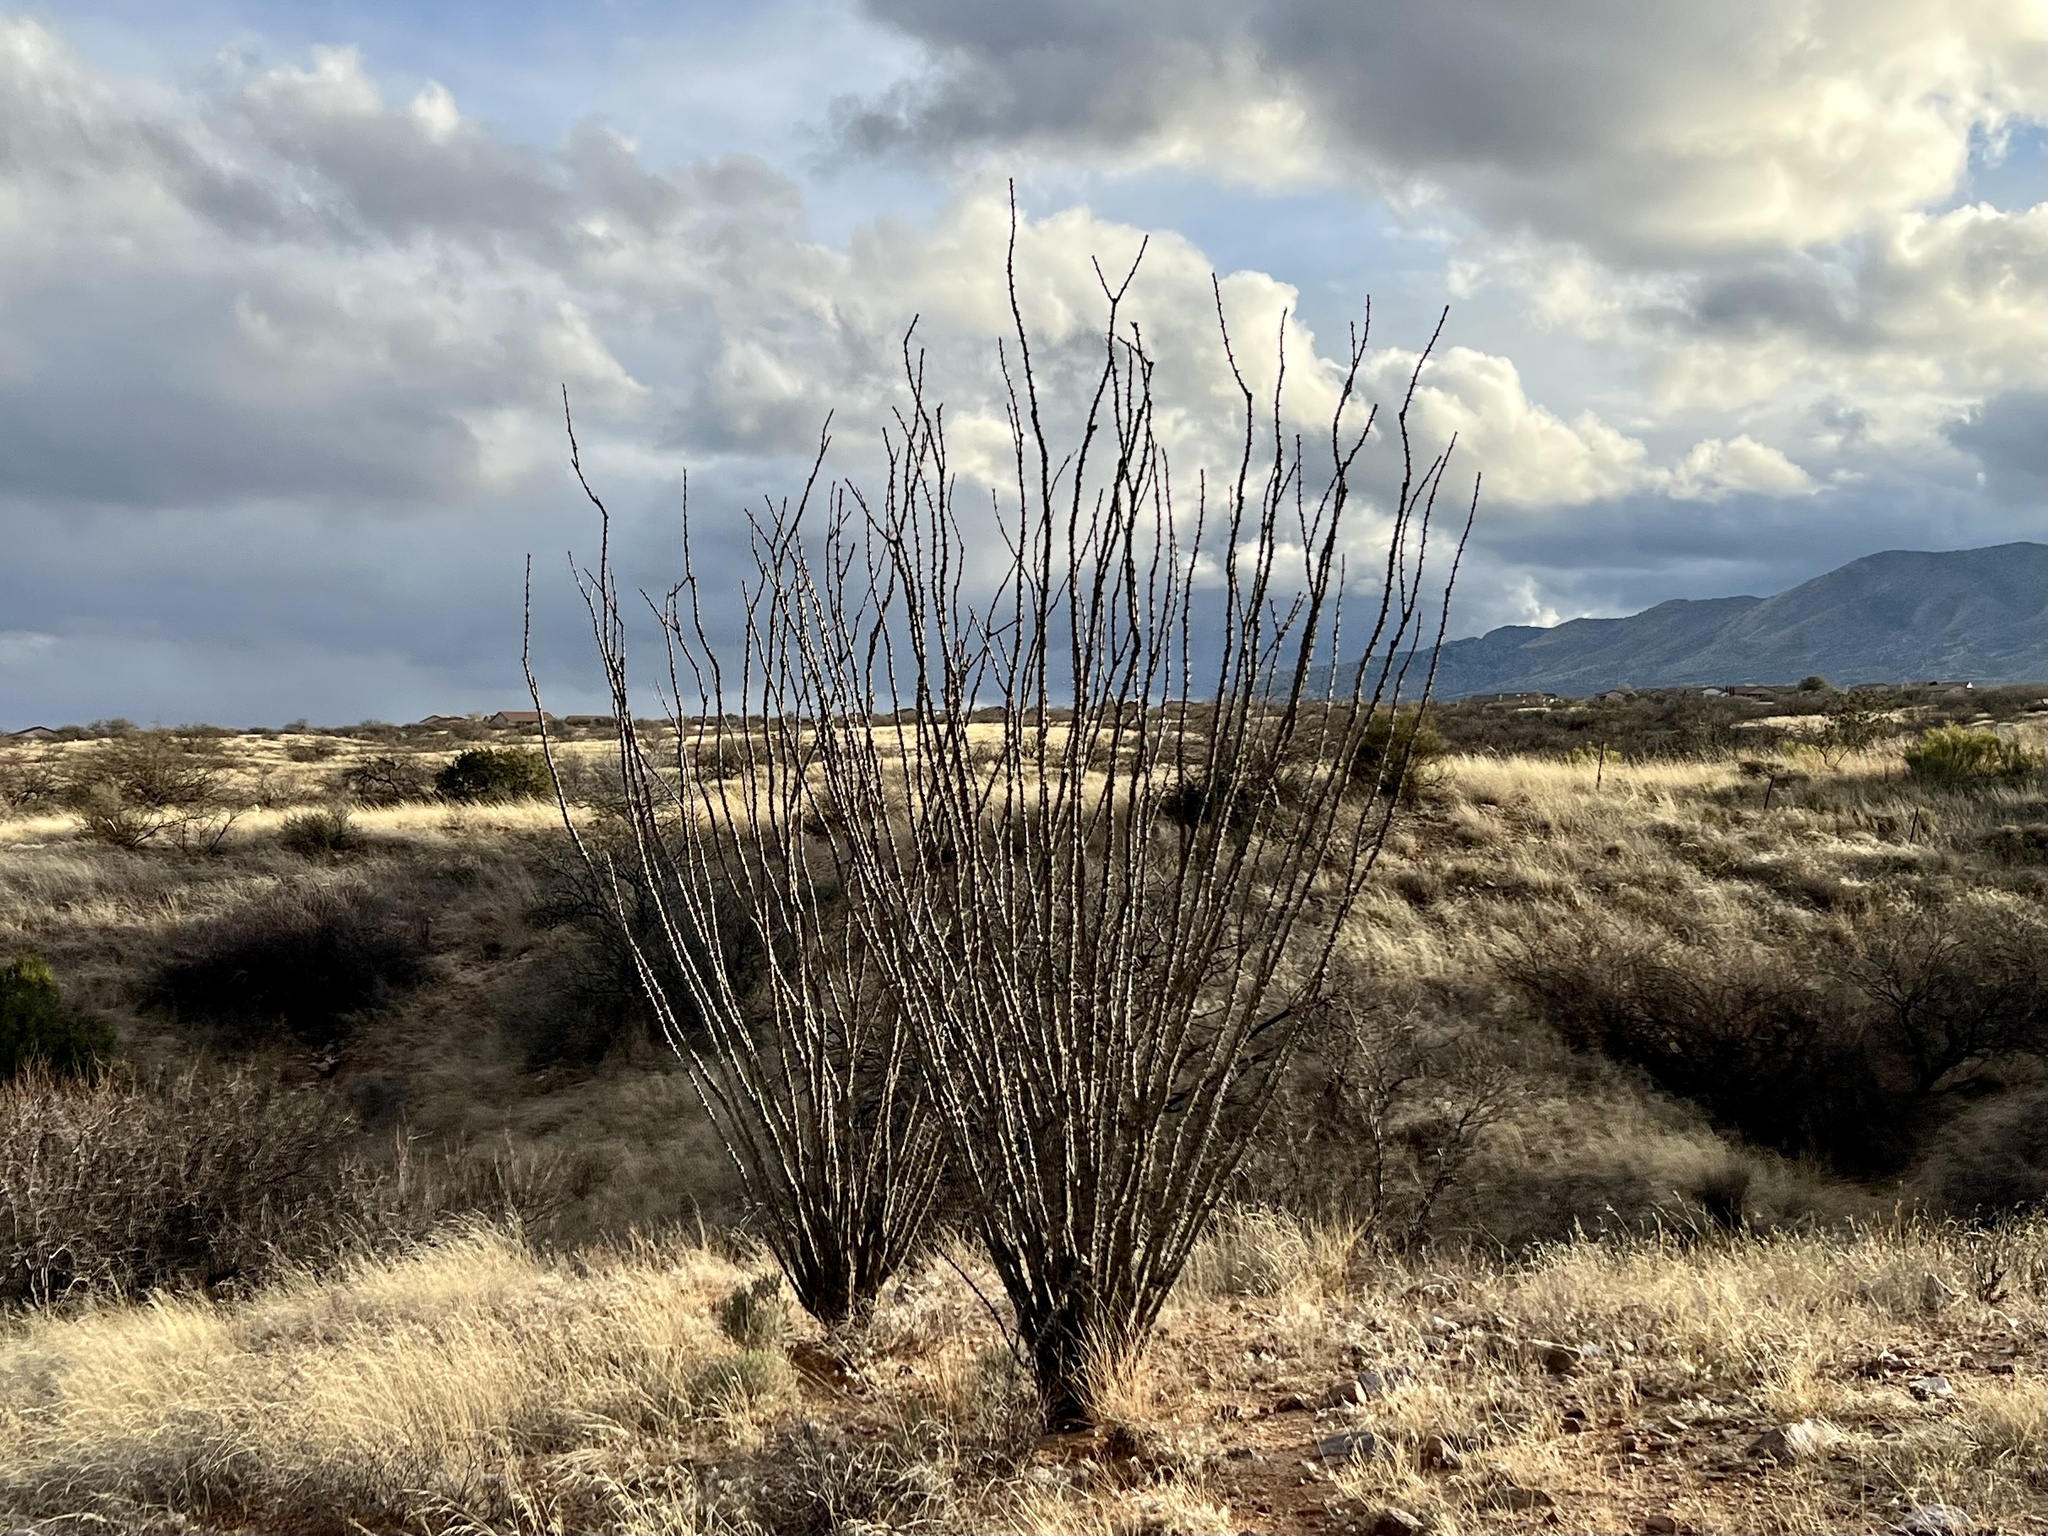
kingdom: Plantae
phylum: Tracheophyta
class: Magnoliopsida
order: Ericales
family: Fouquieriaceae
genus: Fouquieria
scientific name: Fouquieria splendens
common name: Vine-cactus
